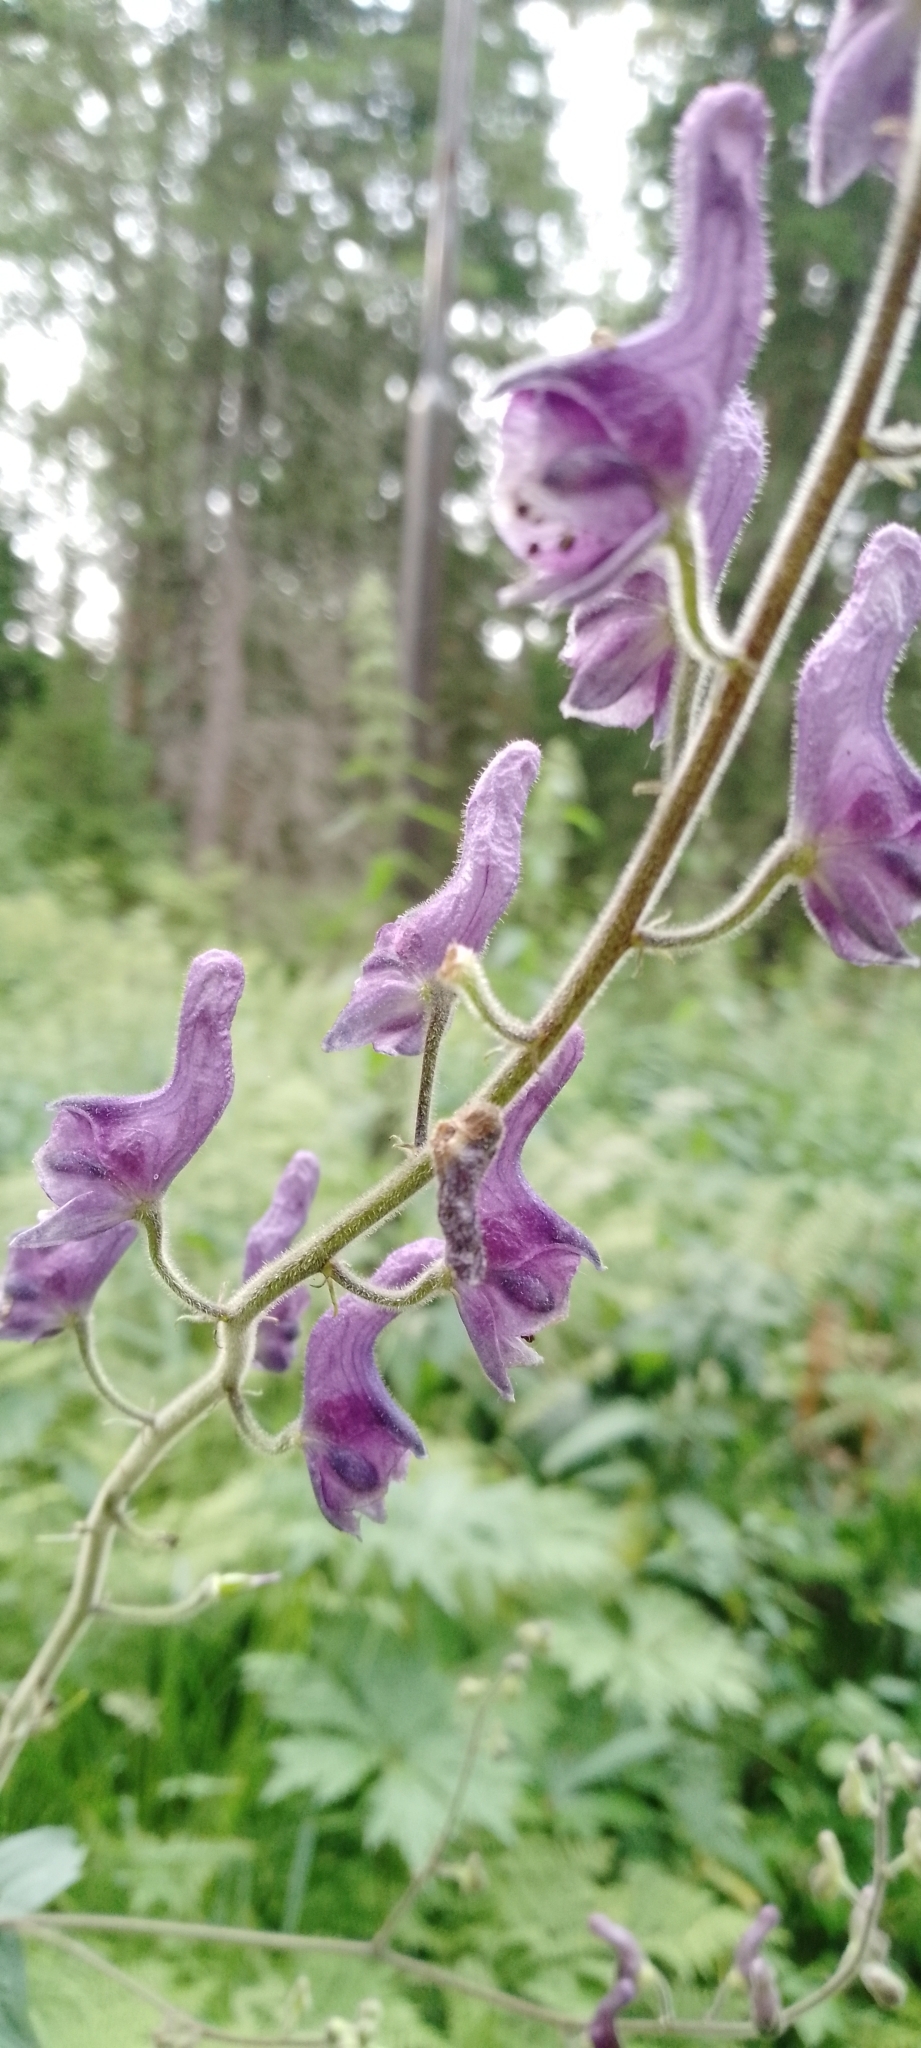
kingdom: Plantae
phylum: Tracheophyta
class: Magnoliopsida
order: Ranunculales
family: Ranunculaceae
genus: Aconitum
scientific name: Aconitum septentrionale
